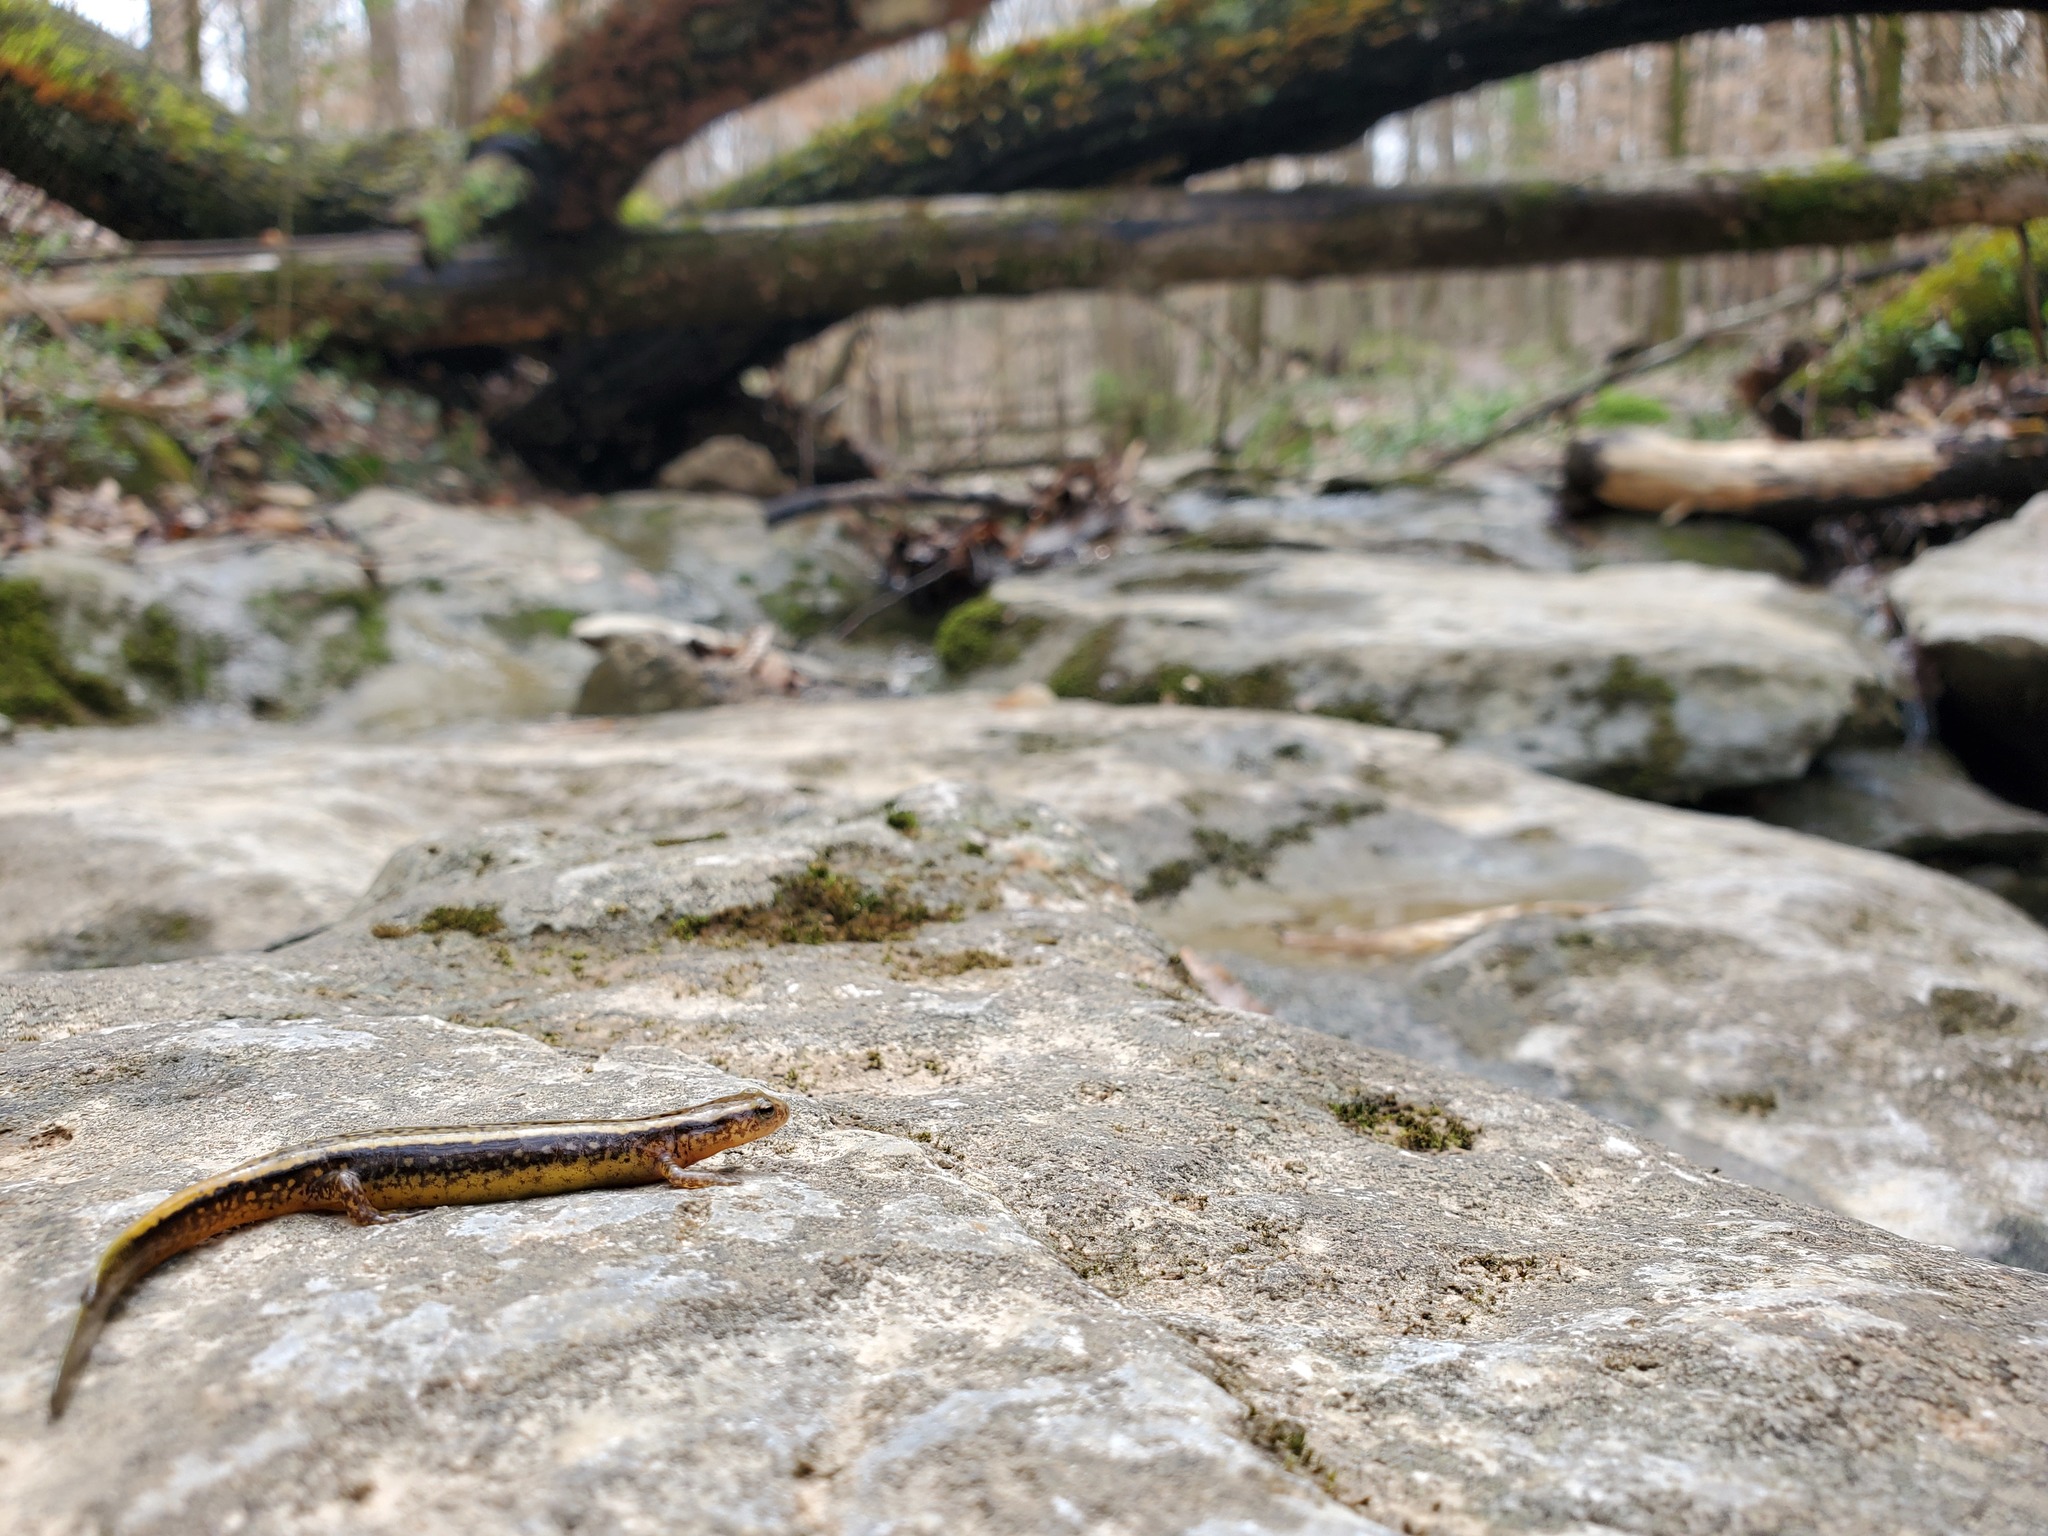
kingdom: Animalia
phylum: Chordata
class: Amphibia
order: Caudata
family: Plethodontidae
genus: Eurycea
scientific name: Eurycea cirrigera
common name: Southern two-lined salamander
